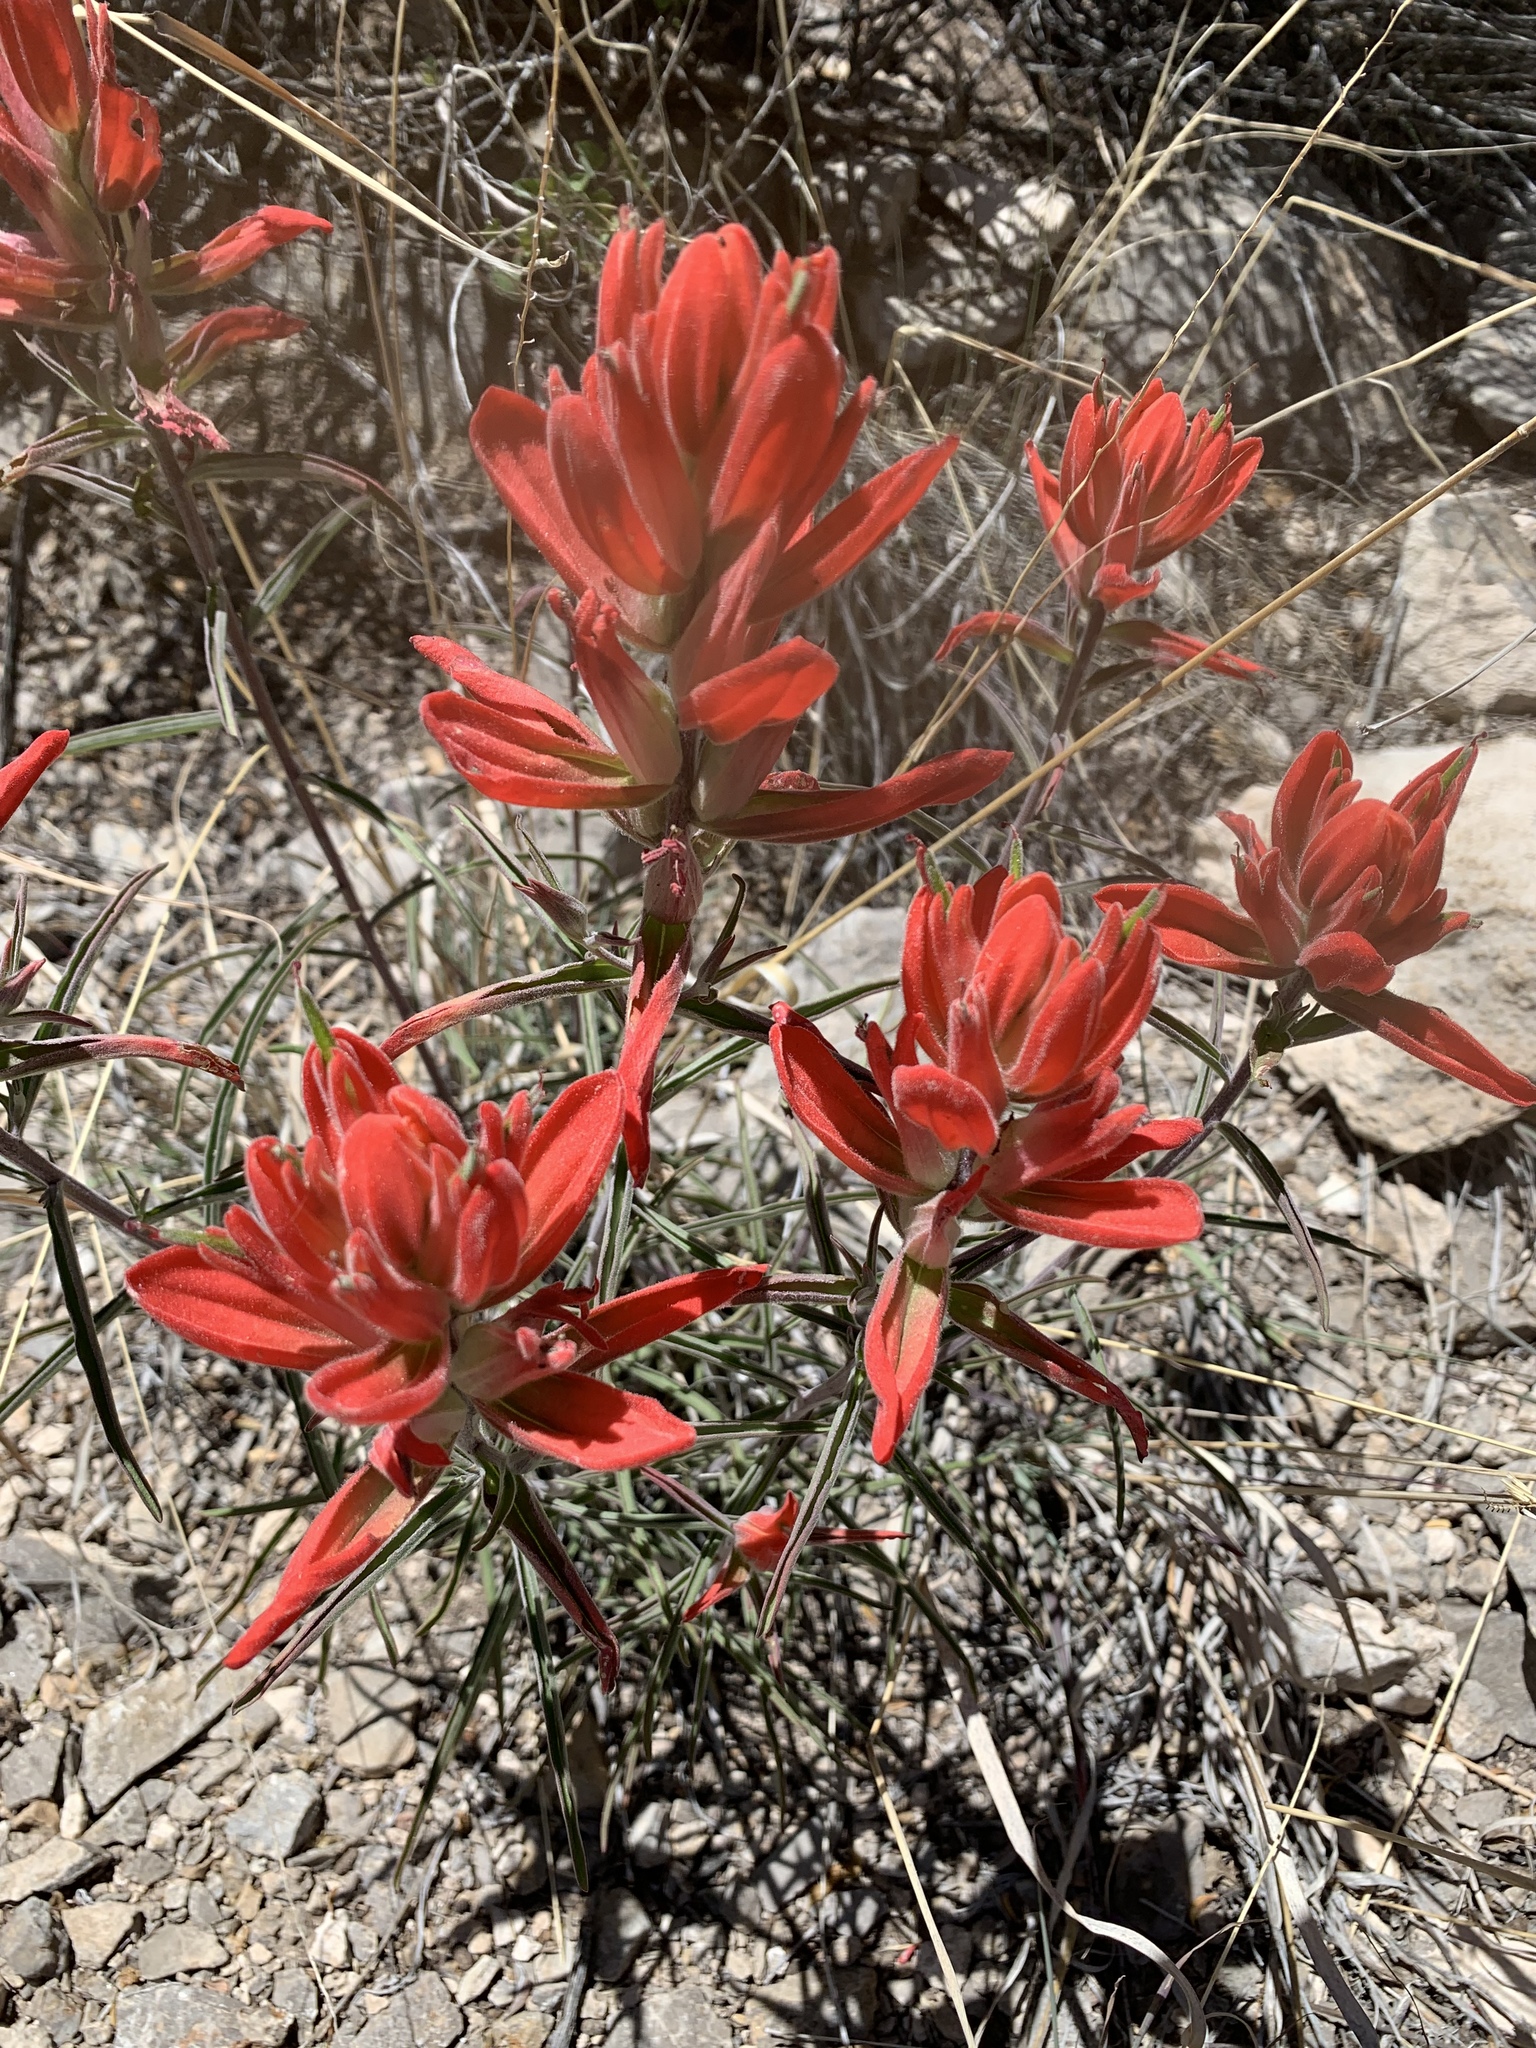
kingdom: Plantae
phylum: Tracheophyta
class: Magnoliopsida
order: Lamiales
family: Orobanchaceae
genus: Castilleja
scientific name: Castilleja integra
